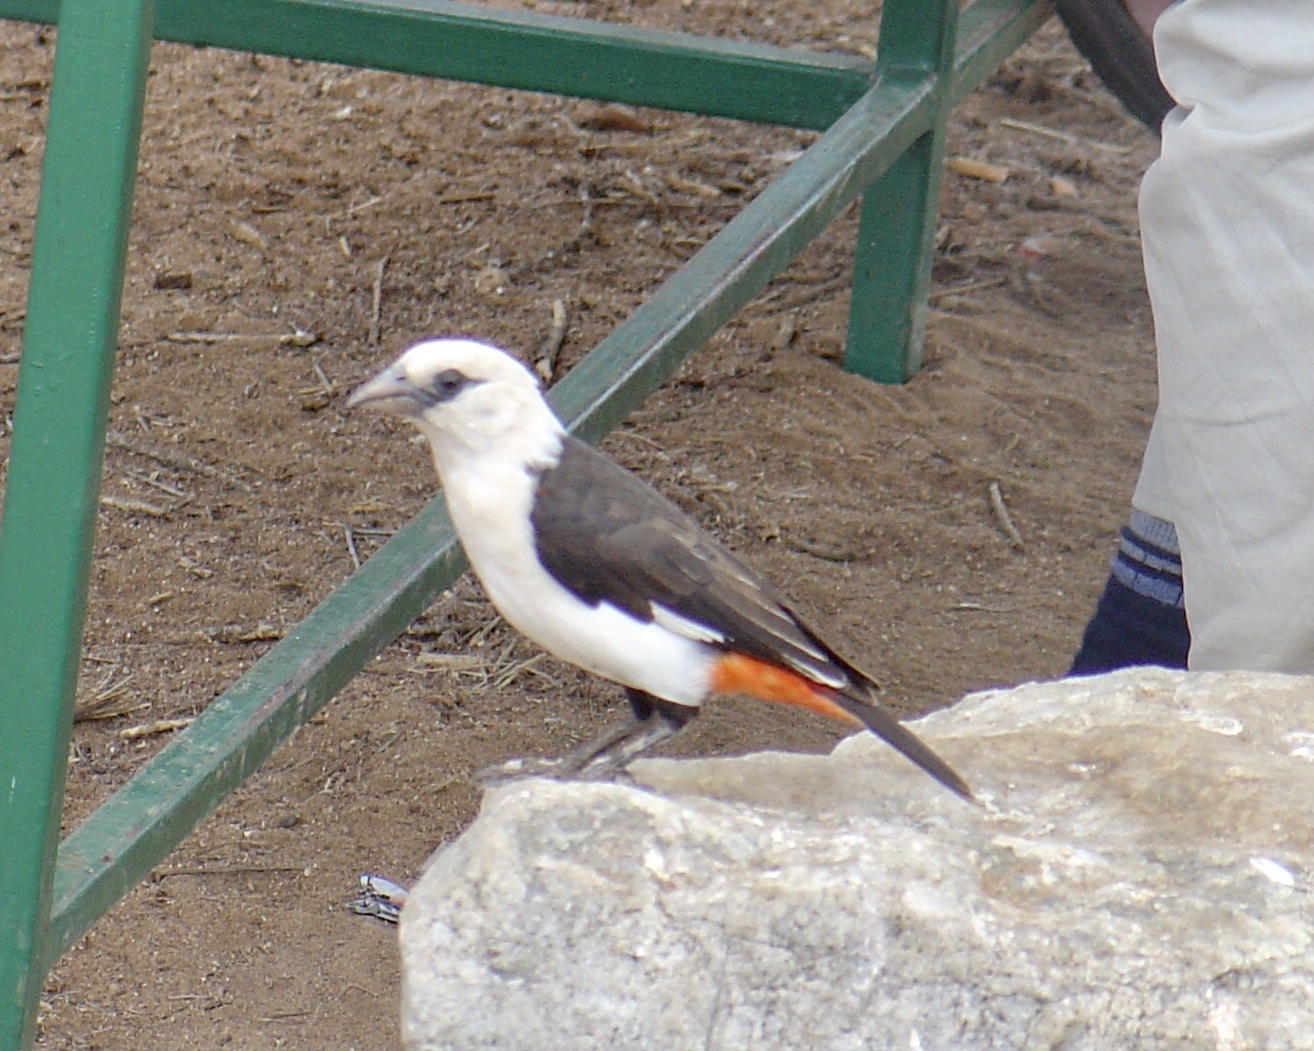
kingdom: Animalia
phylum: Chordata
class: Aves
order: Passeriformes
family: Ploceidae
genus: Dinemellia
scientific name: Dinemellia dinemelli
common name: White-headed buffalo weaver
